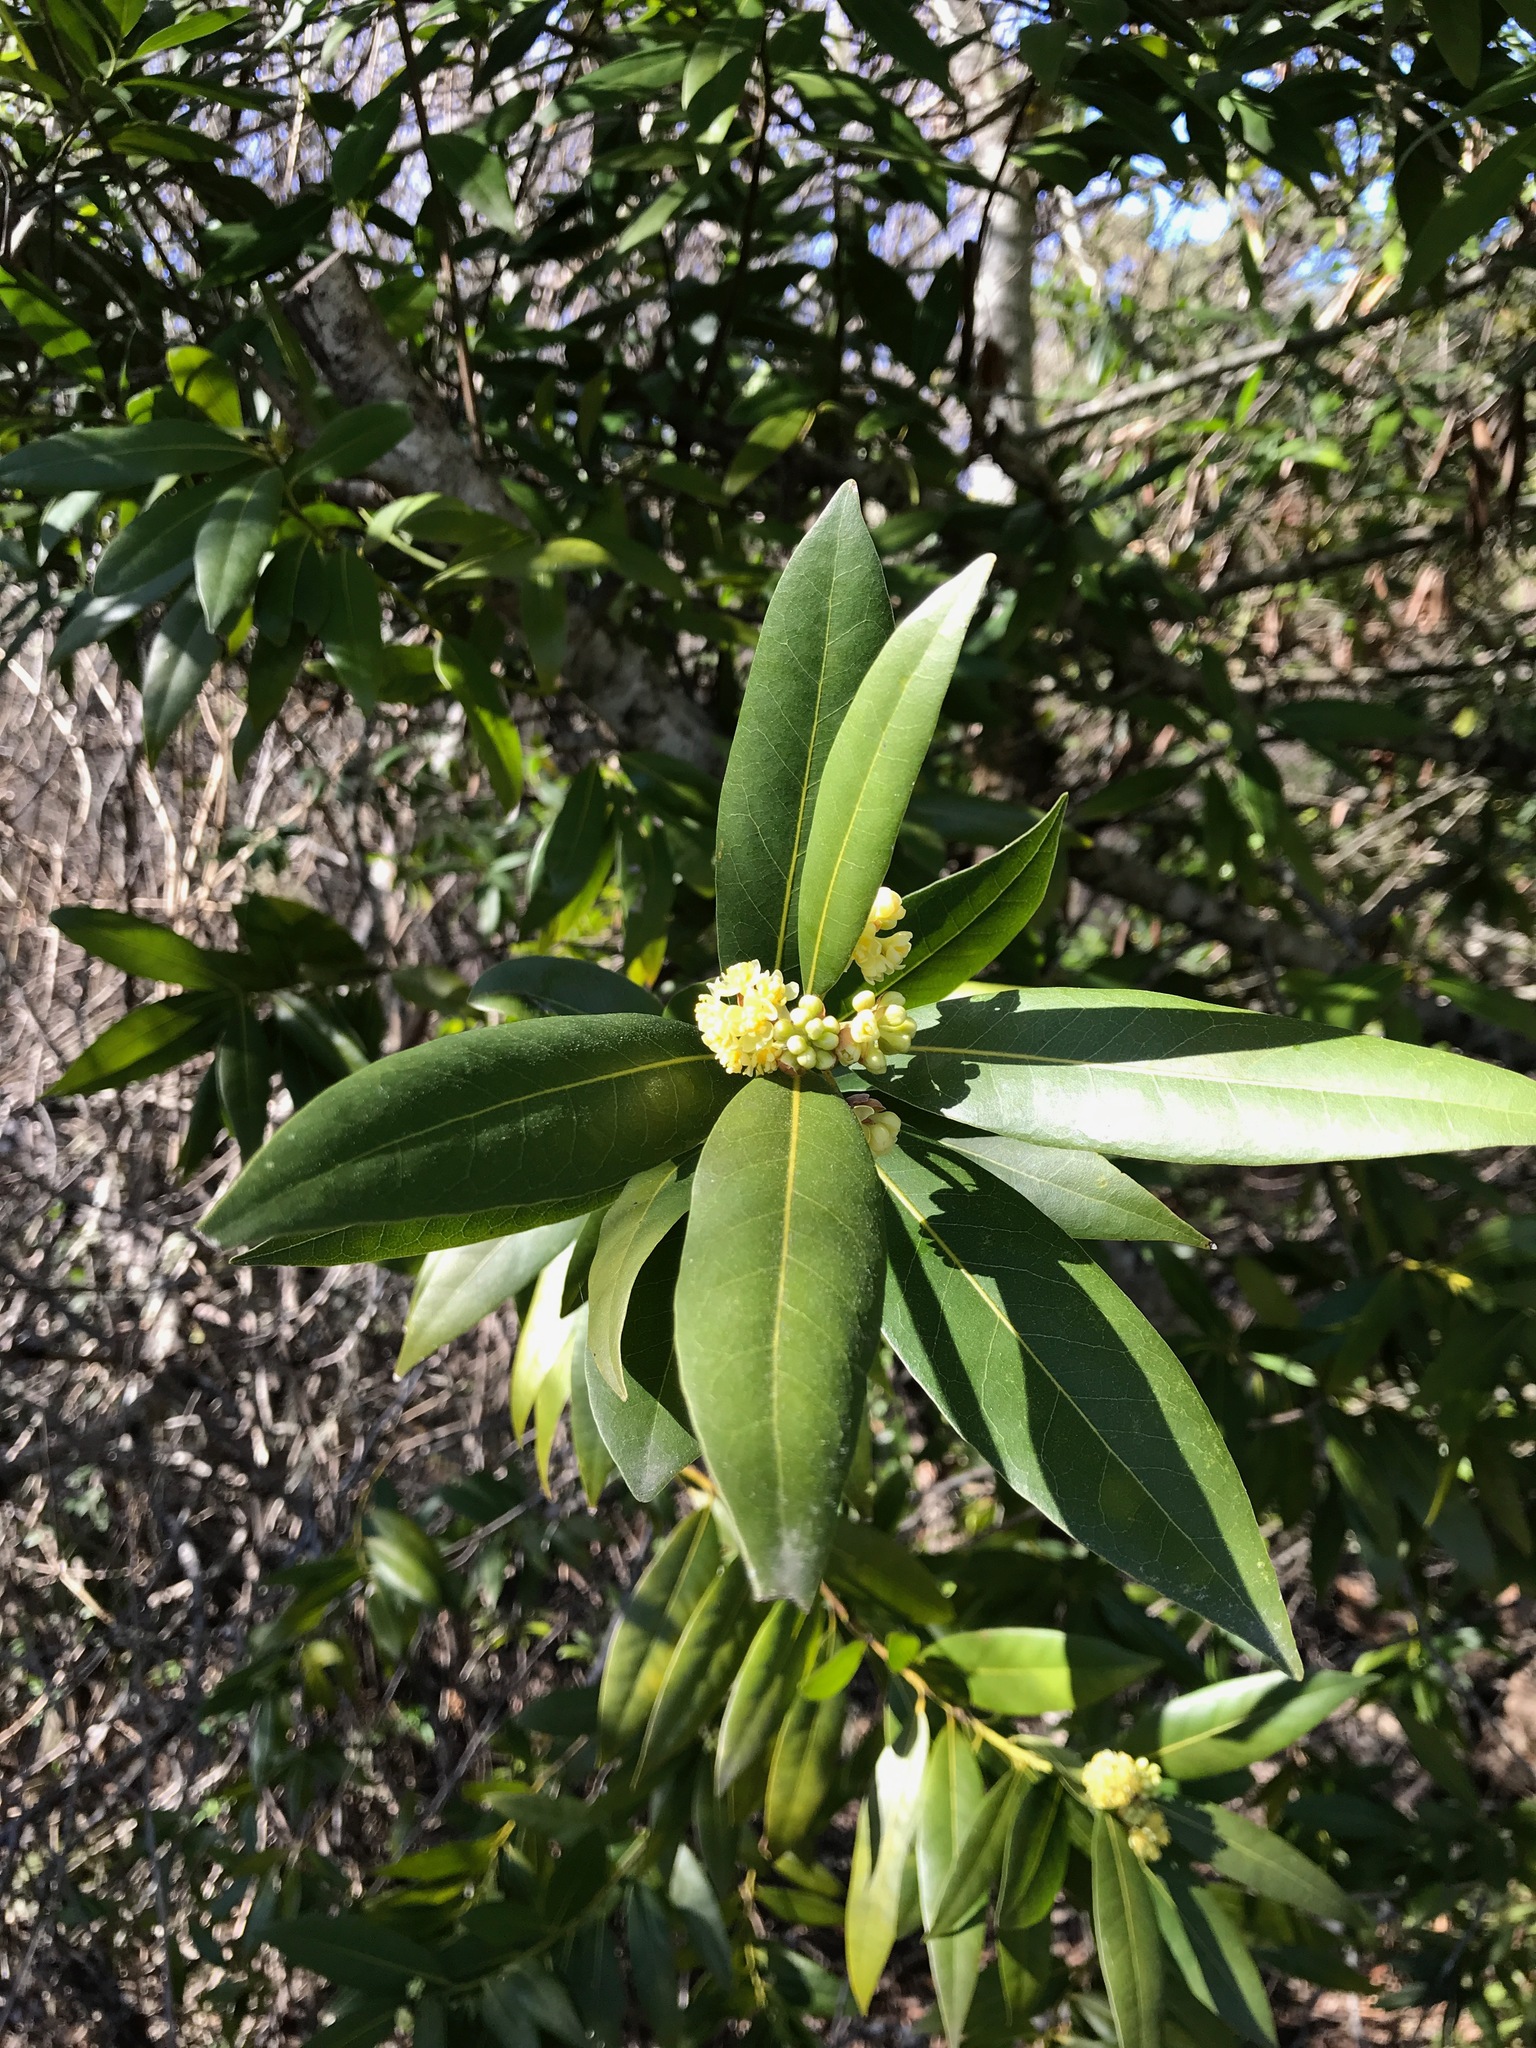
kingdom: Plantae
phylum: Tracheophyta
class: Magnoliopsida
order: Laurales
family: Lauraceae
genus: Umbellularia
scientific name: Umbellularia californica
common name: California bay
